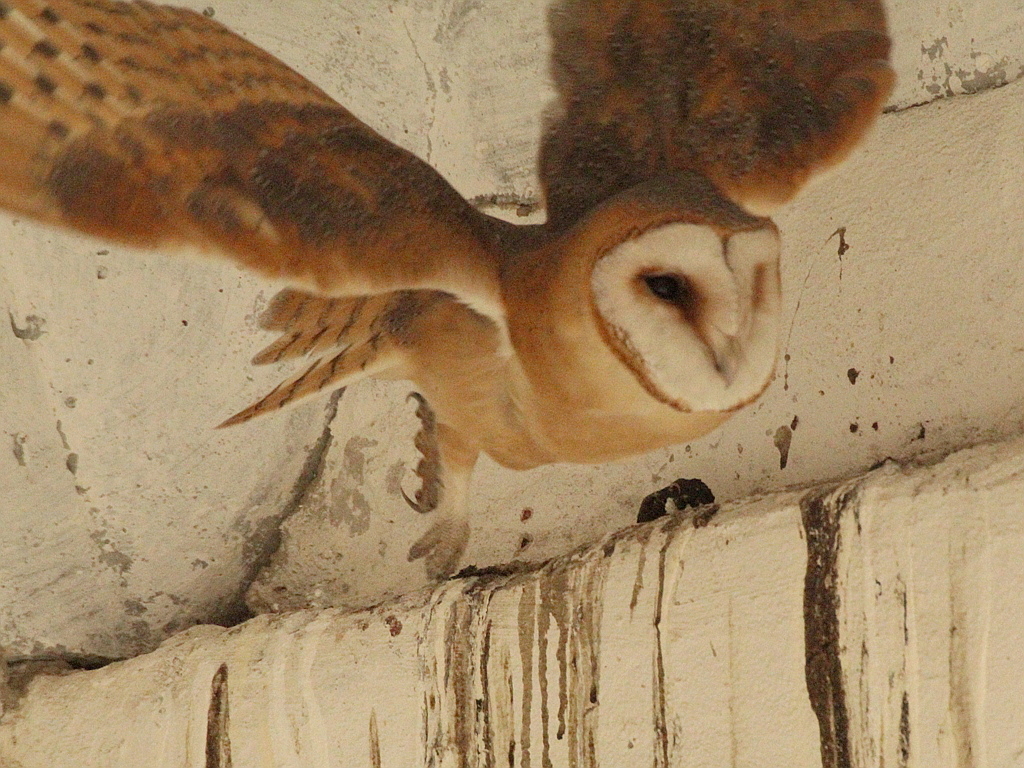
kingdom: Animalia
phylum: Chordata
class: Aves
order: Strigiformes
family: Tytonidae
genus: Tyto
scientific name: Tyto alba
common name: Barn owl
